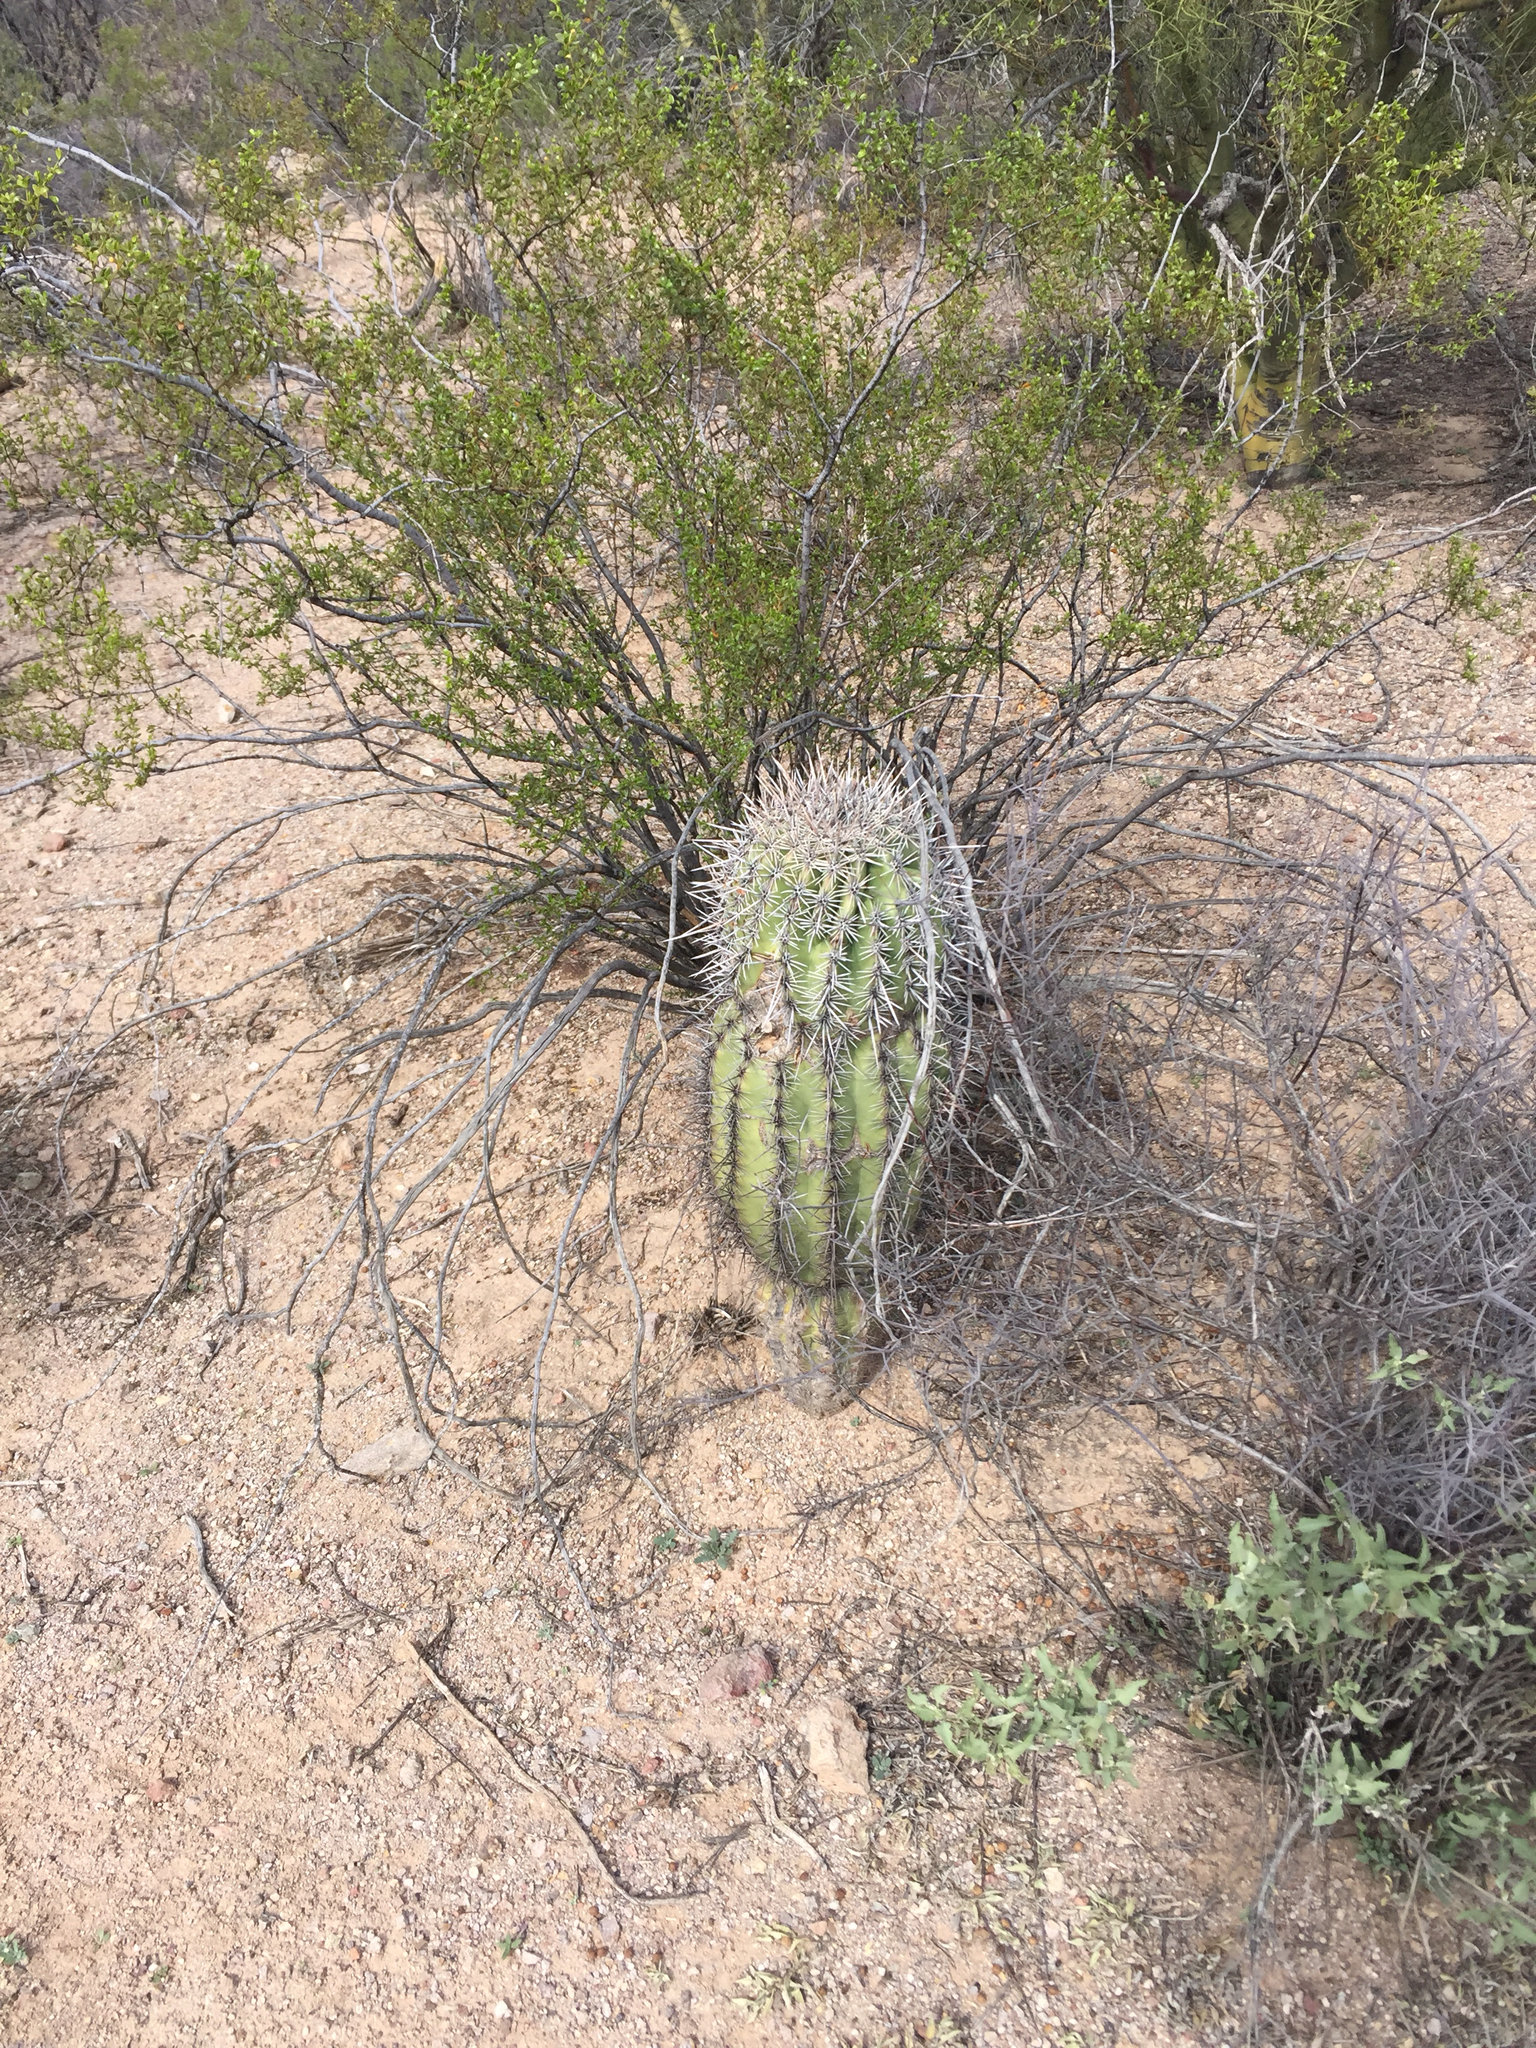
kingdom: Plantae
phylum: Tracheophyta
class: Magnoliopsida
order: Caryophyllales
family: Cactaceae
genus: Carnegiea
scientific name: Carnegiea gigantea
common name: Saguaro
